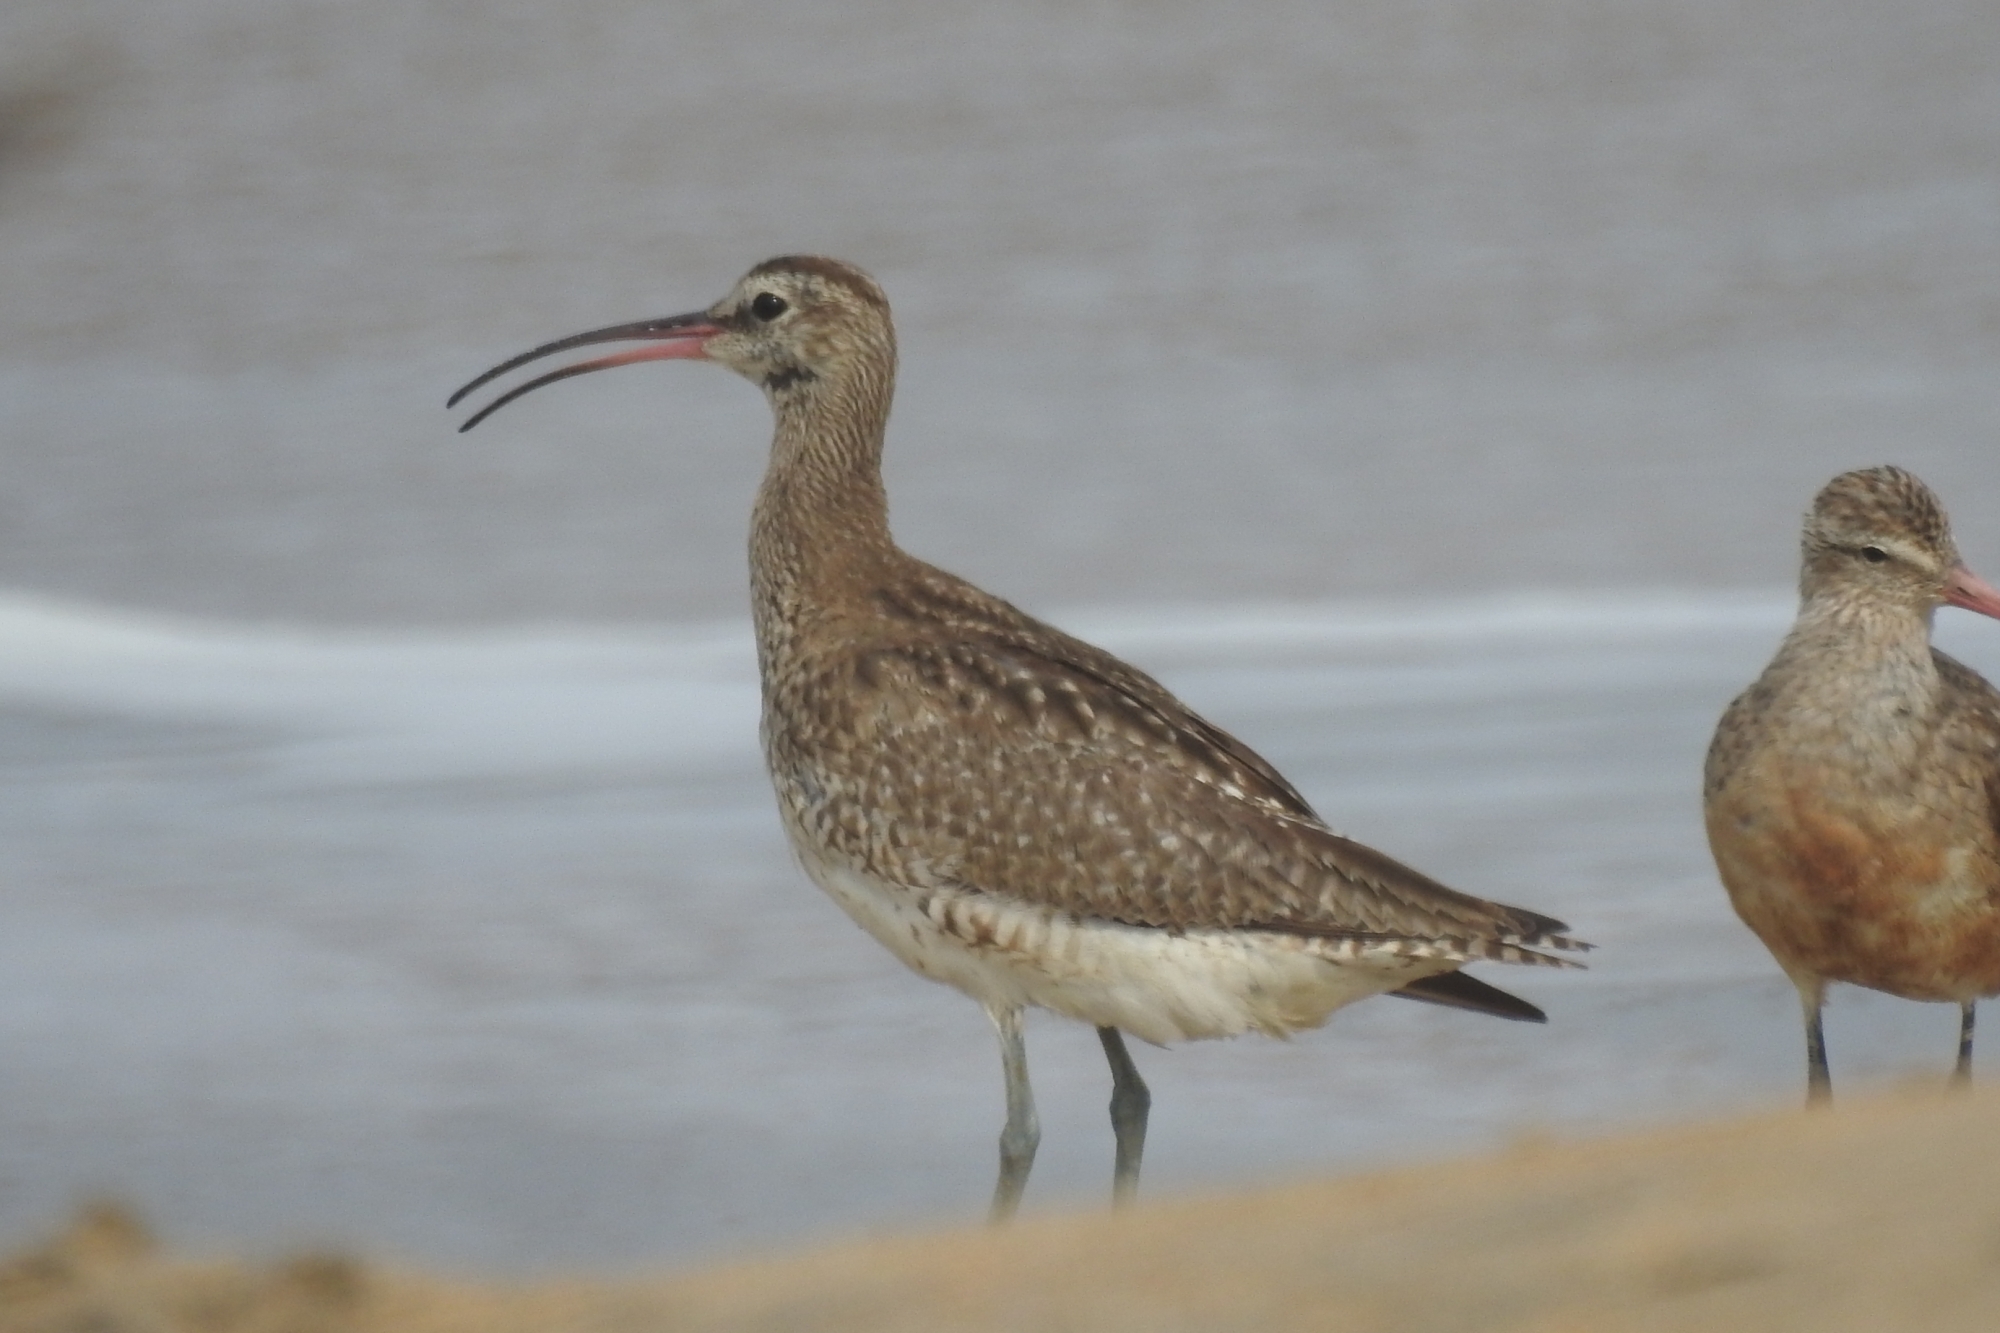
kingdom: Animalia
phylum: Chordata
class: Aves
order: Charadriiformes
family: Scolopacidae
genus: Numenius
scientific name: Numenius phaeopus
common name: Whimbrel
